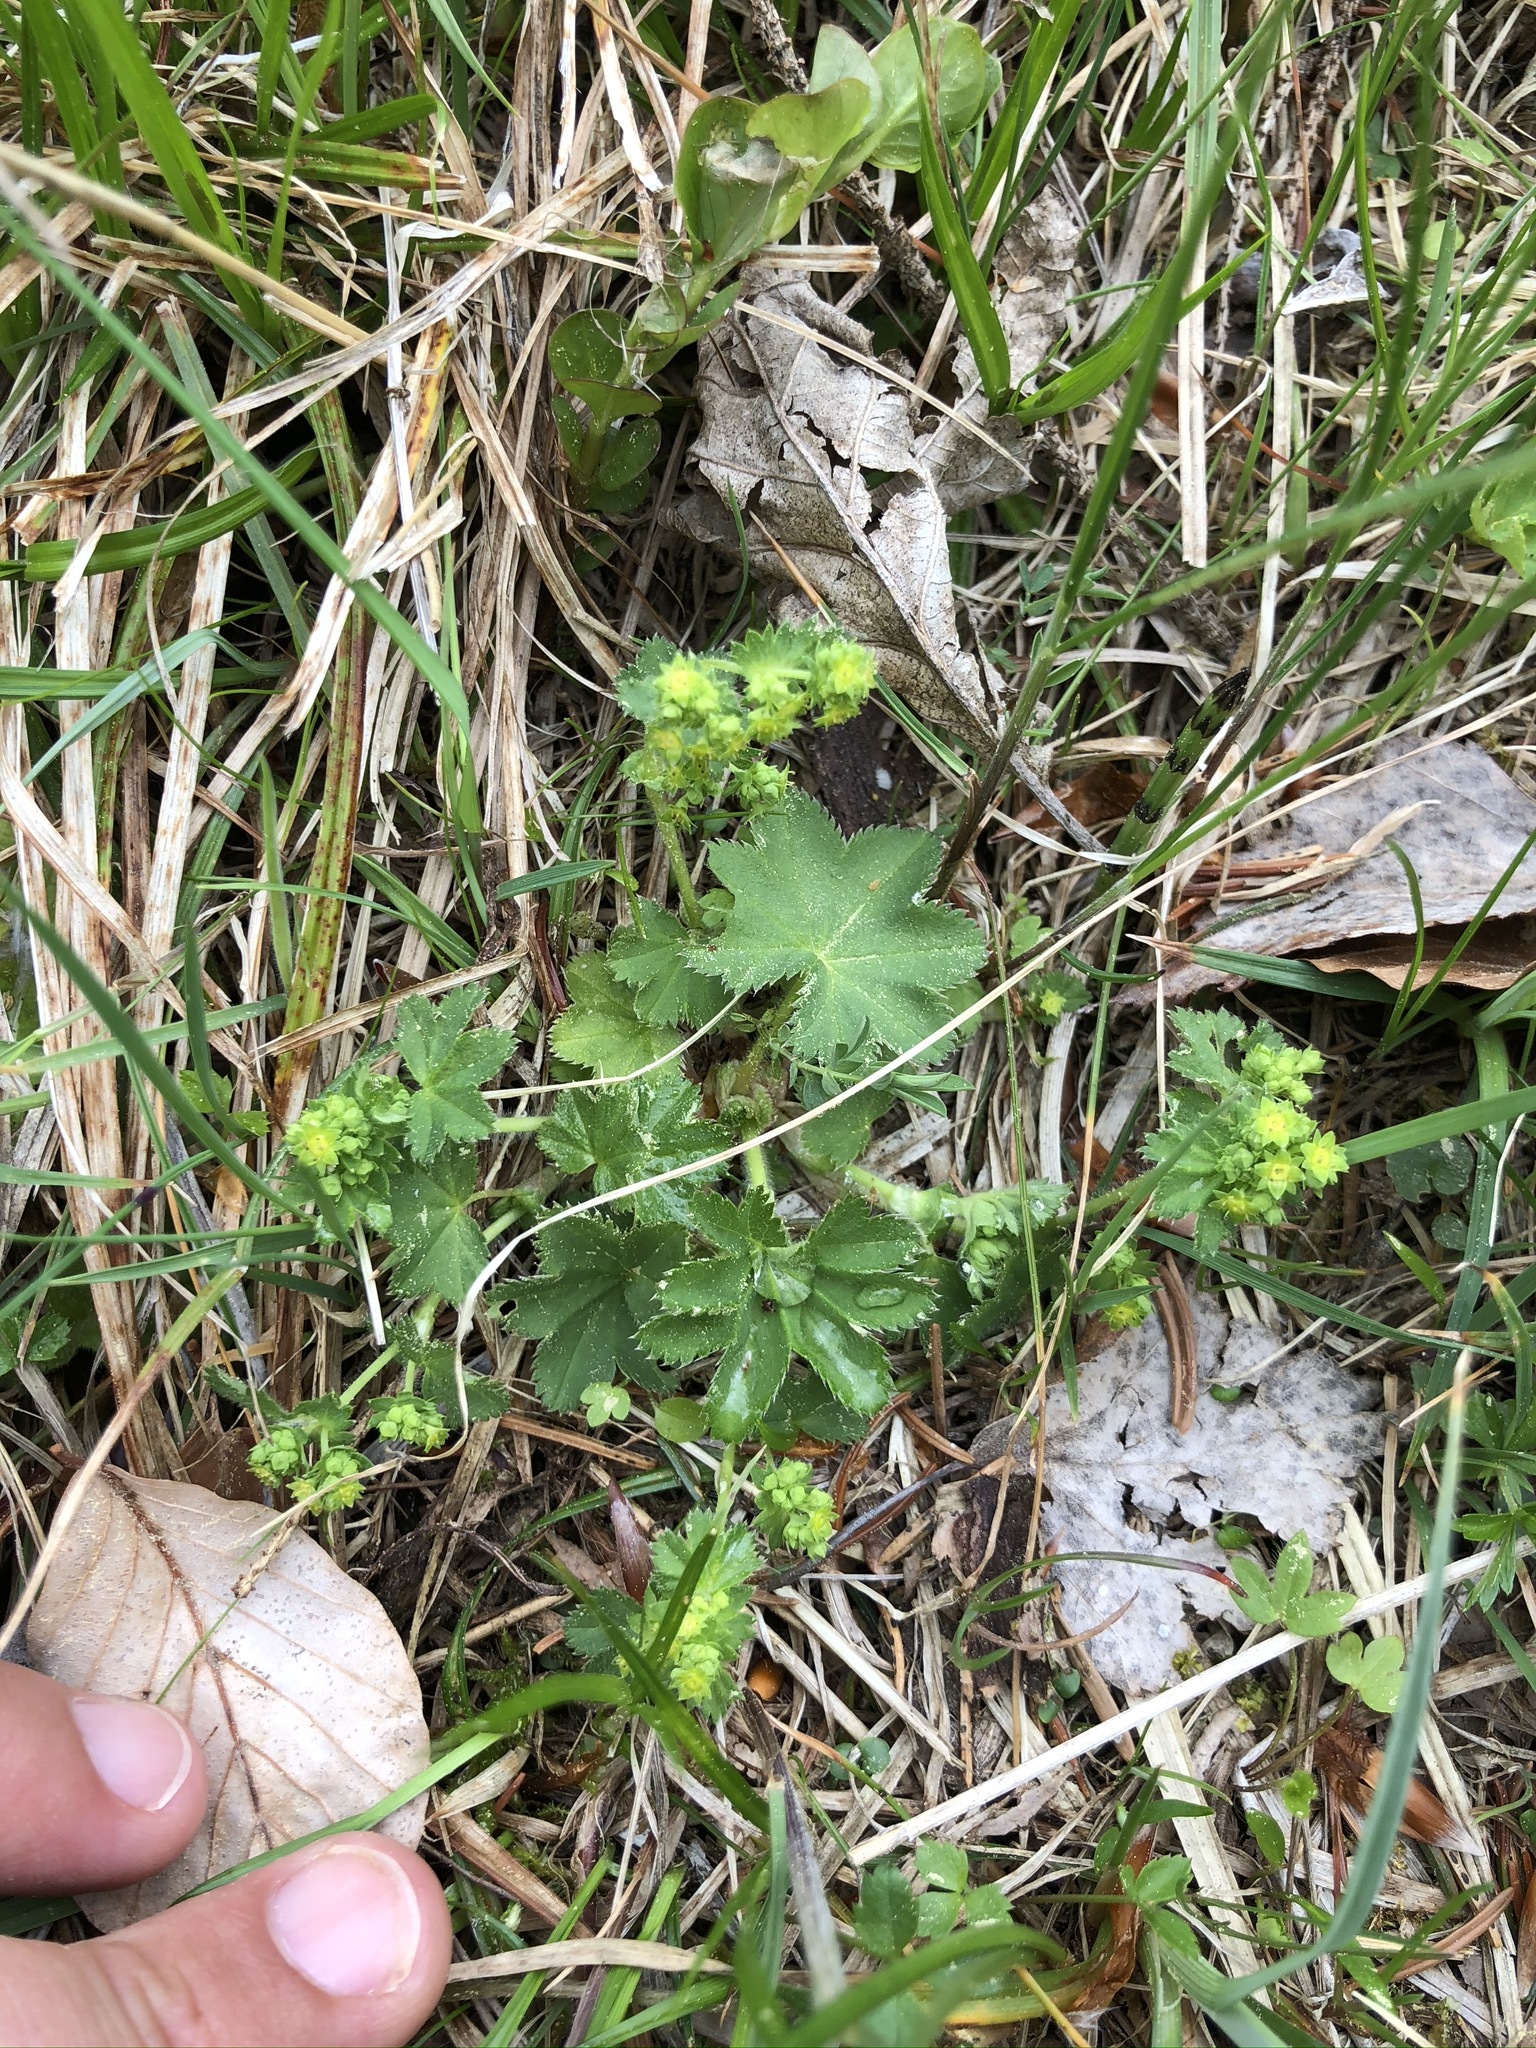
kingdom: Plantae
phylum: Tracheophyta
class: Magnoliopsida
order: Rosales
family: Rosaceae
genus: Alchemilla
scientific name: Alchemilla monticola
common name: Hairy lady's mantle
